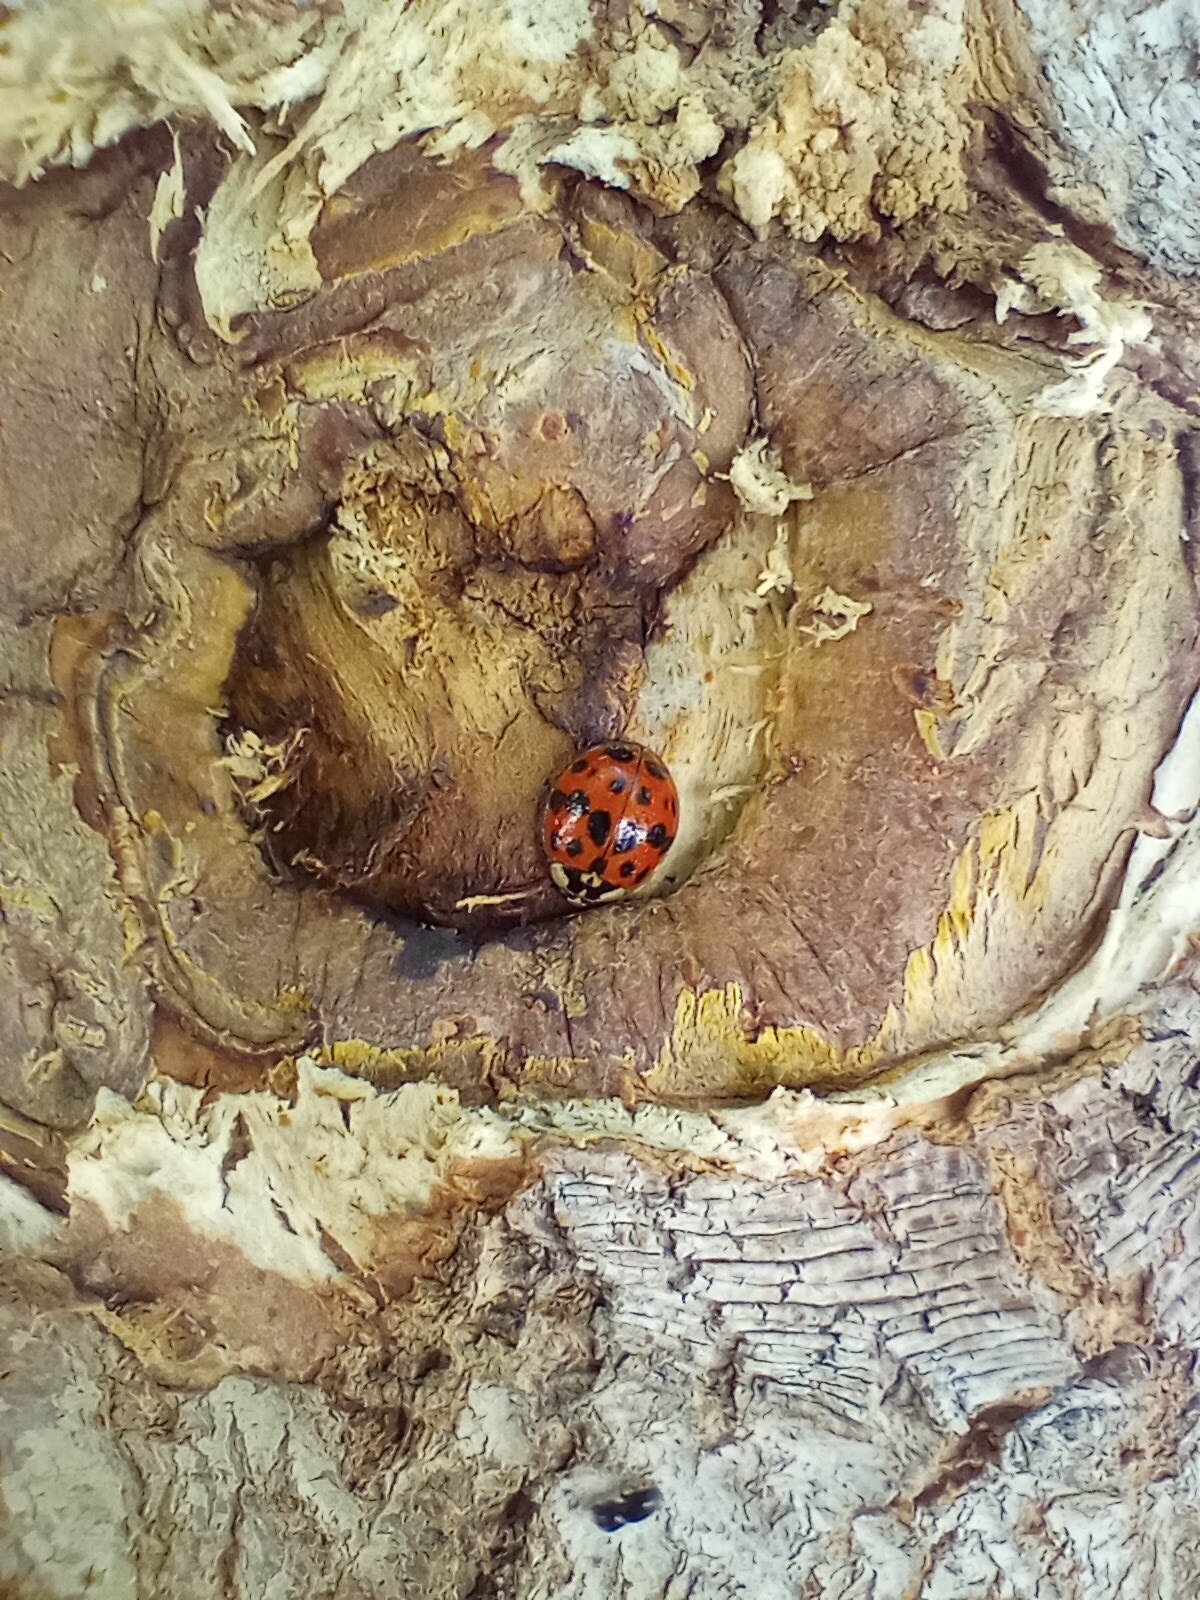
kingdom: Animalia
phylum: Arthropoda
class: Insecta
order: Coleoptera
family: Coccinellidae
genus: Harmonia
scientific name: Harmonia axyridis
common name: Harlequin ladybird
